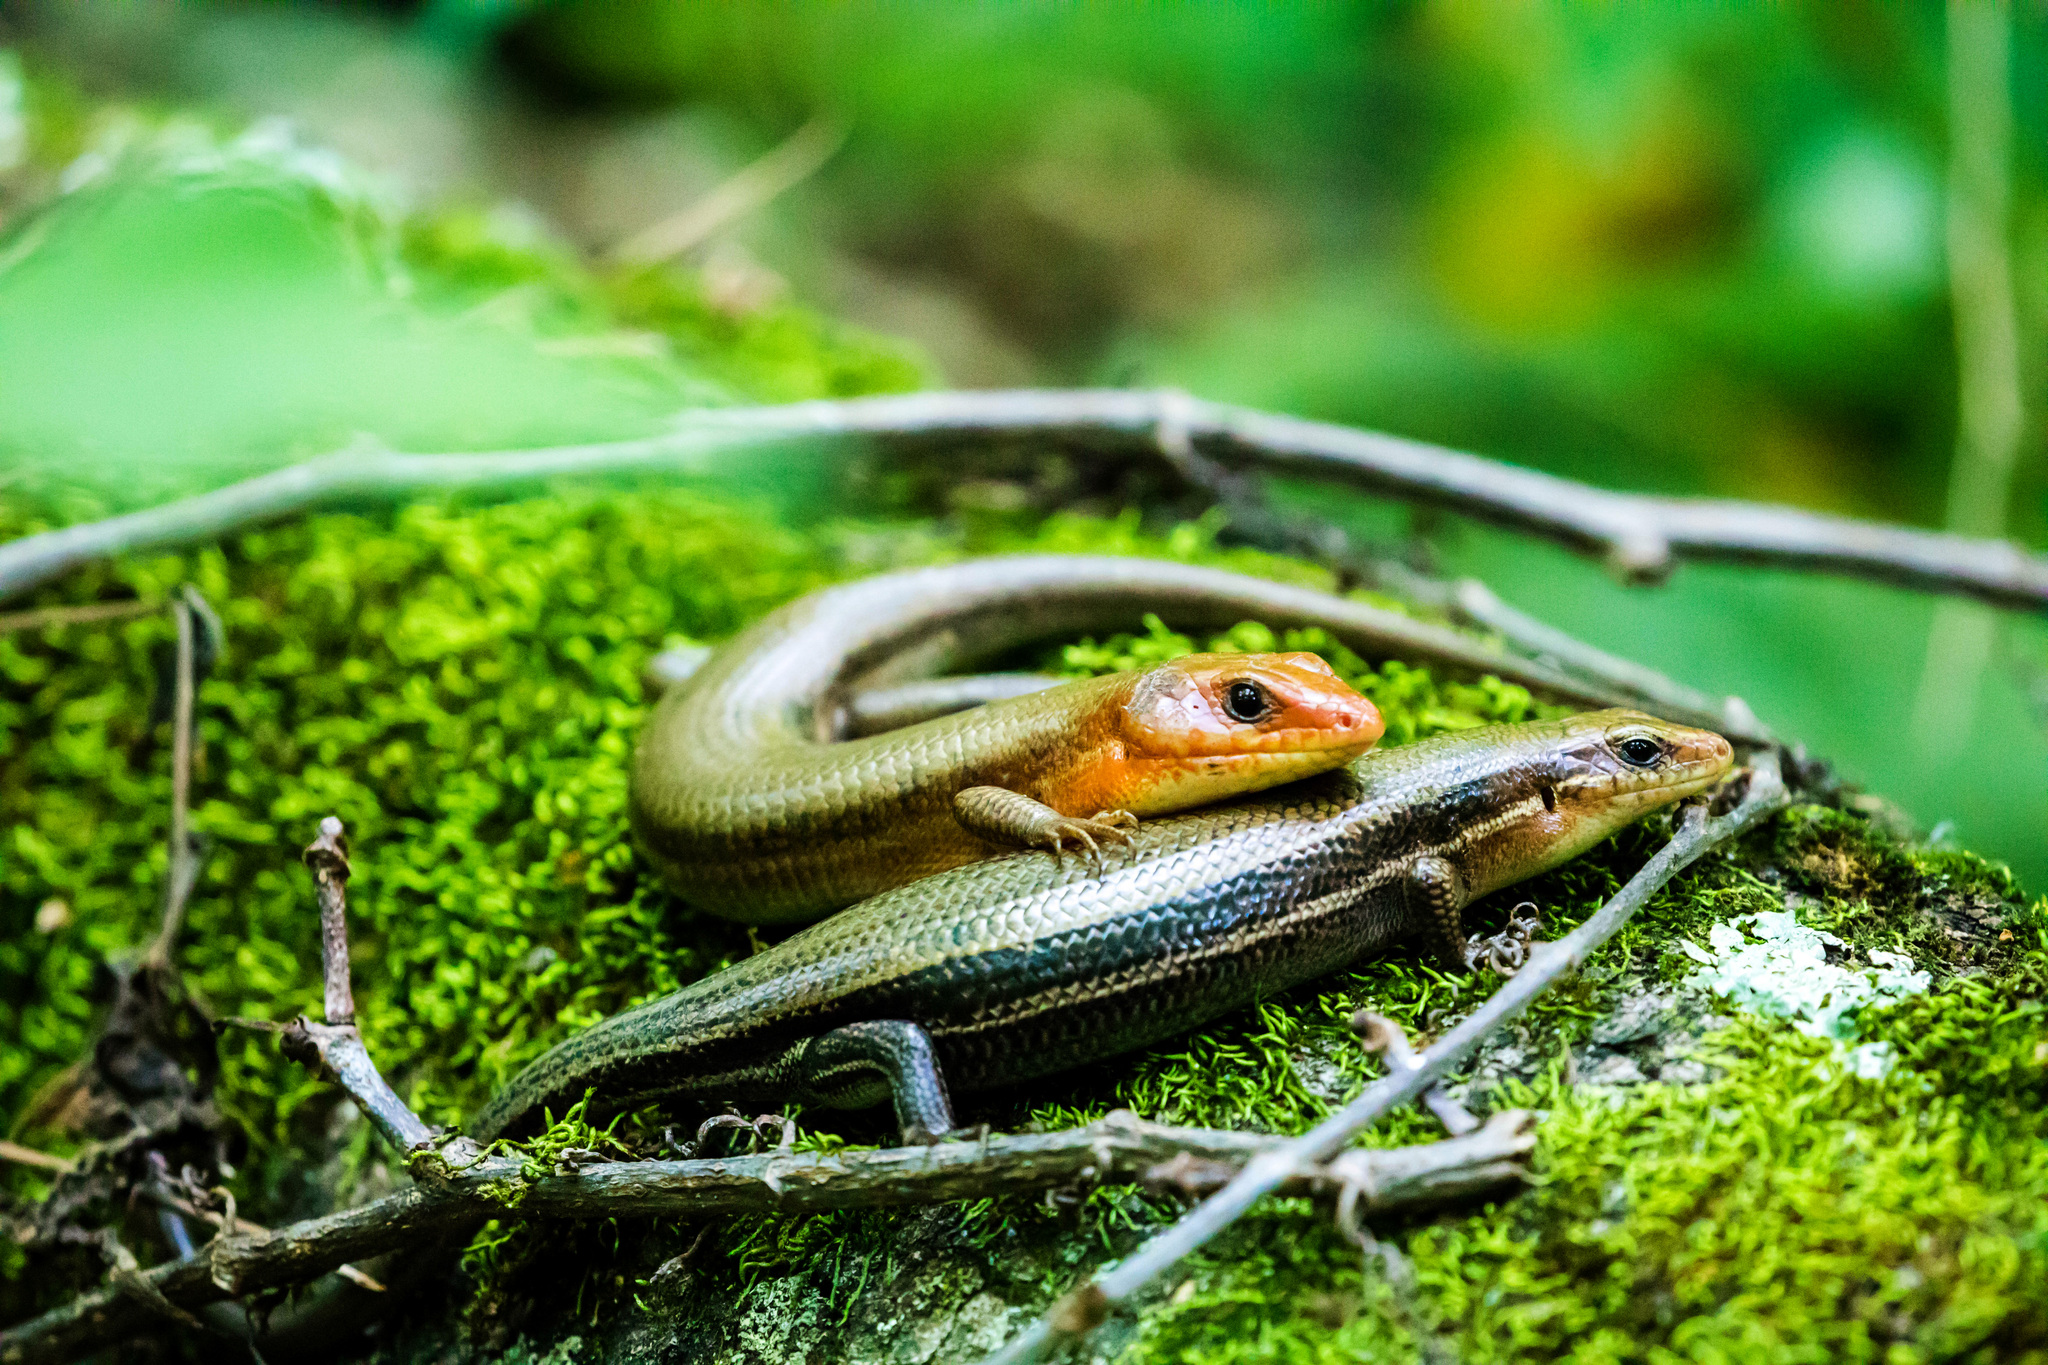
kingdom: Animalia
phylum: Chordata
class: Squamata
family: Scincidae
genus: Plestiodon
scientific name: Plestiodon laticeps
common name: Broadhead skink
